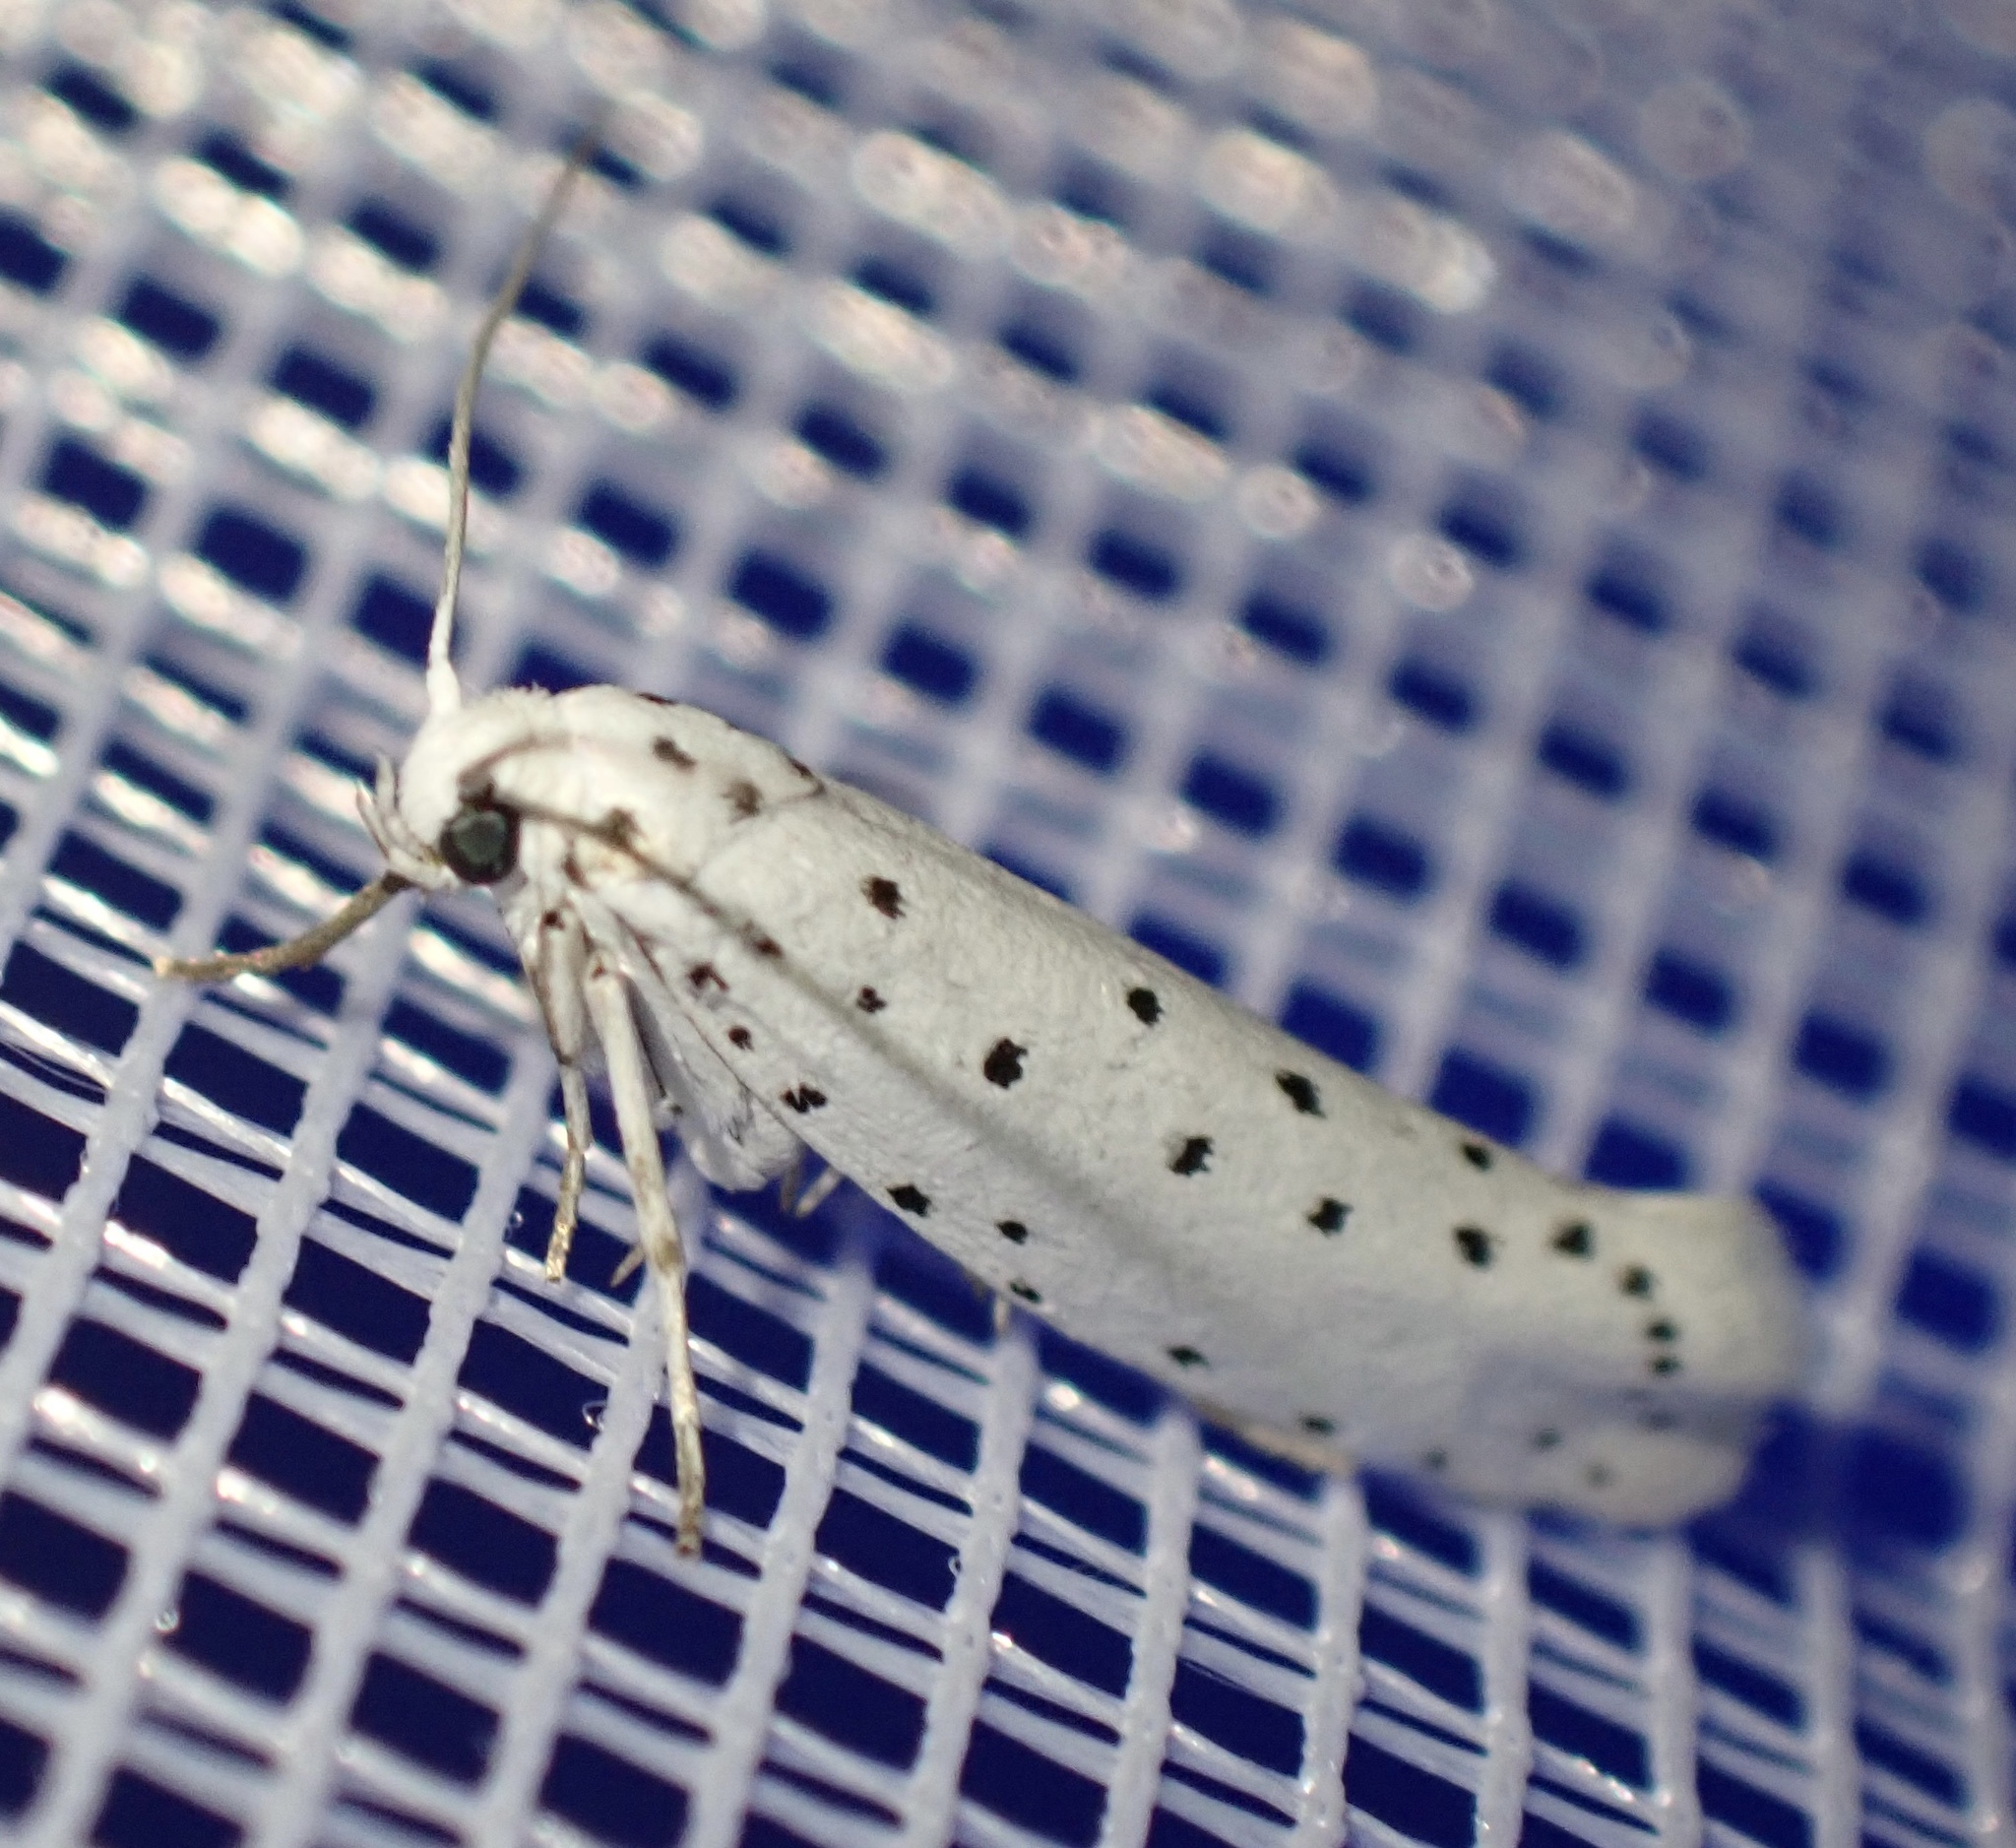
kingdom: Animalia
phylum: Arthropoda
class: Insecta
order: Lepidoptera
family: Yponomeutidae
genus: Yponomeuta
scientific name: Yponomeuta
